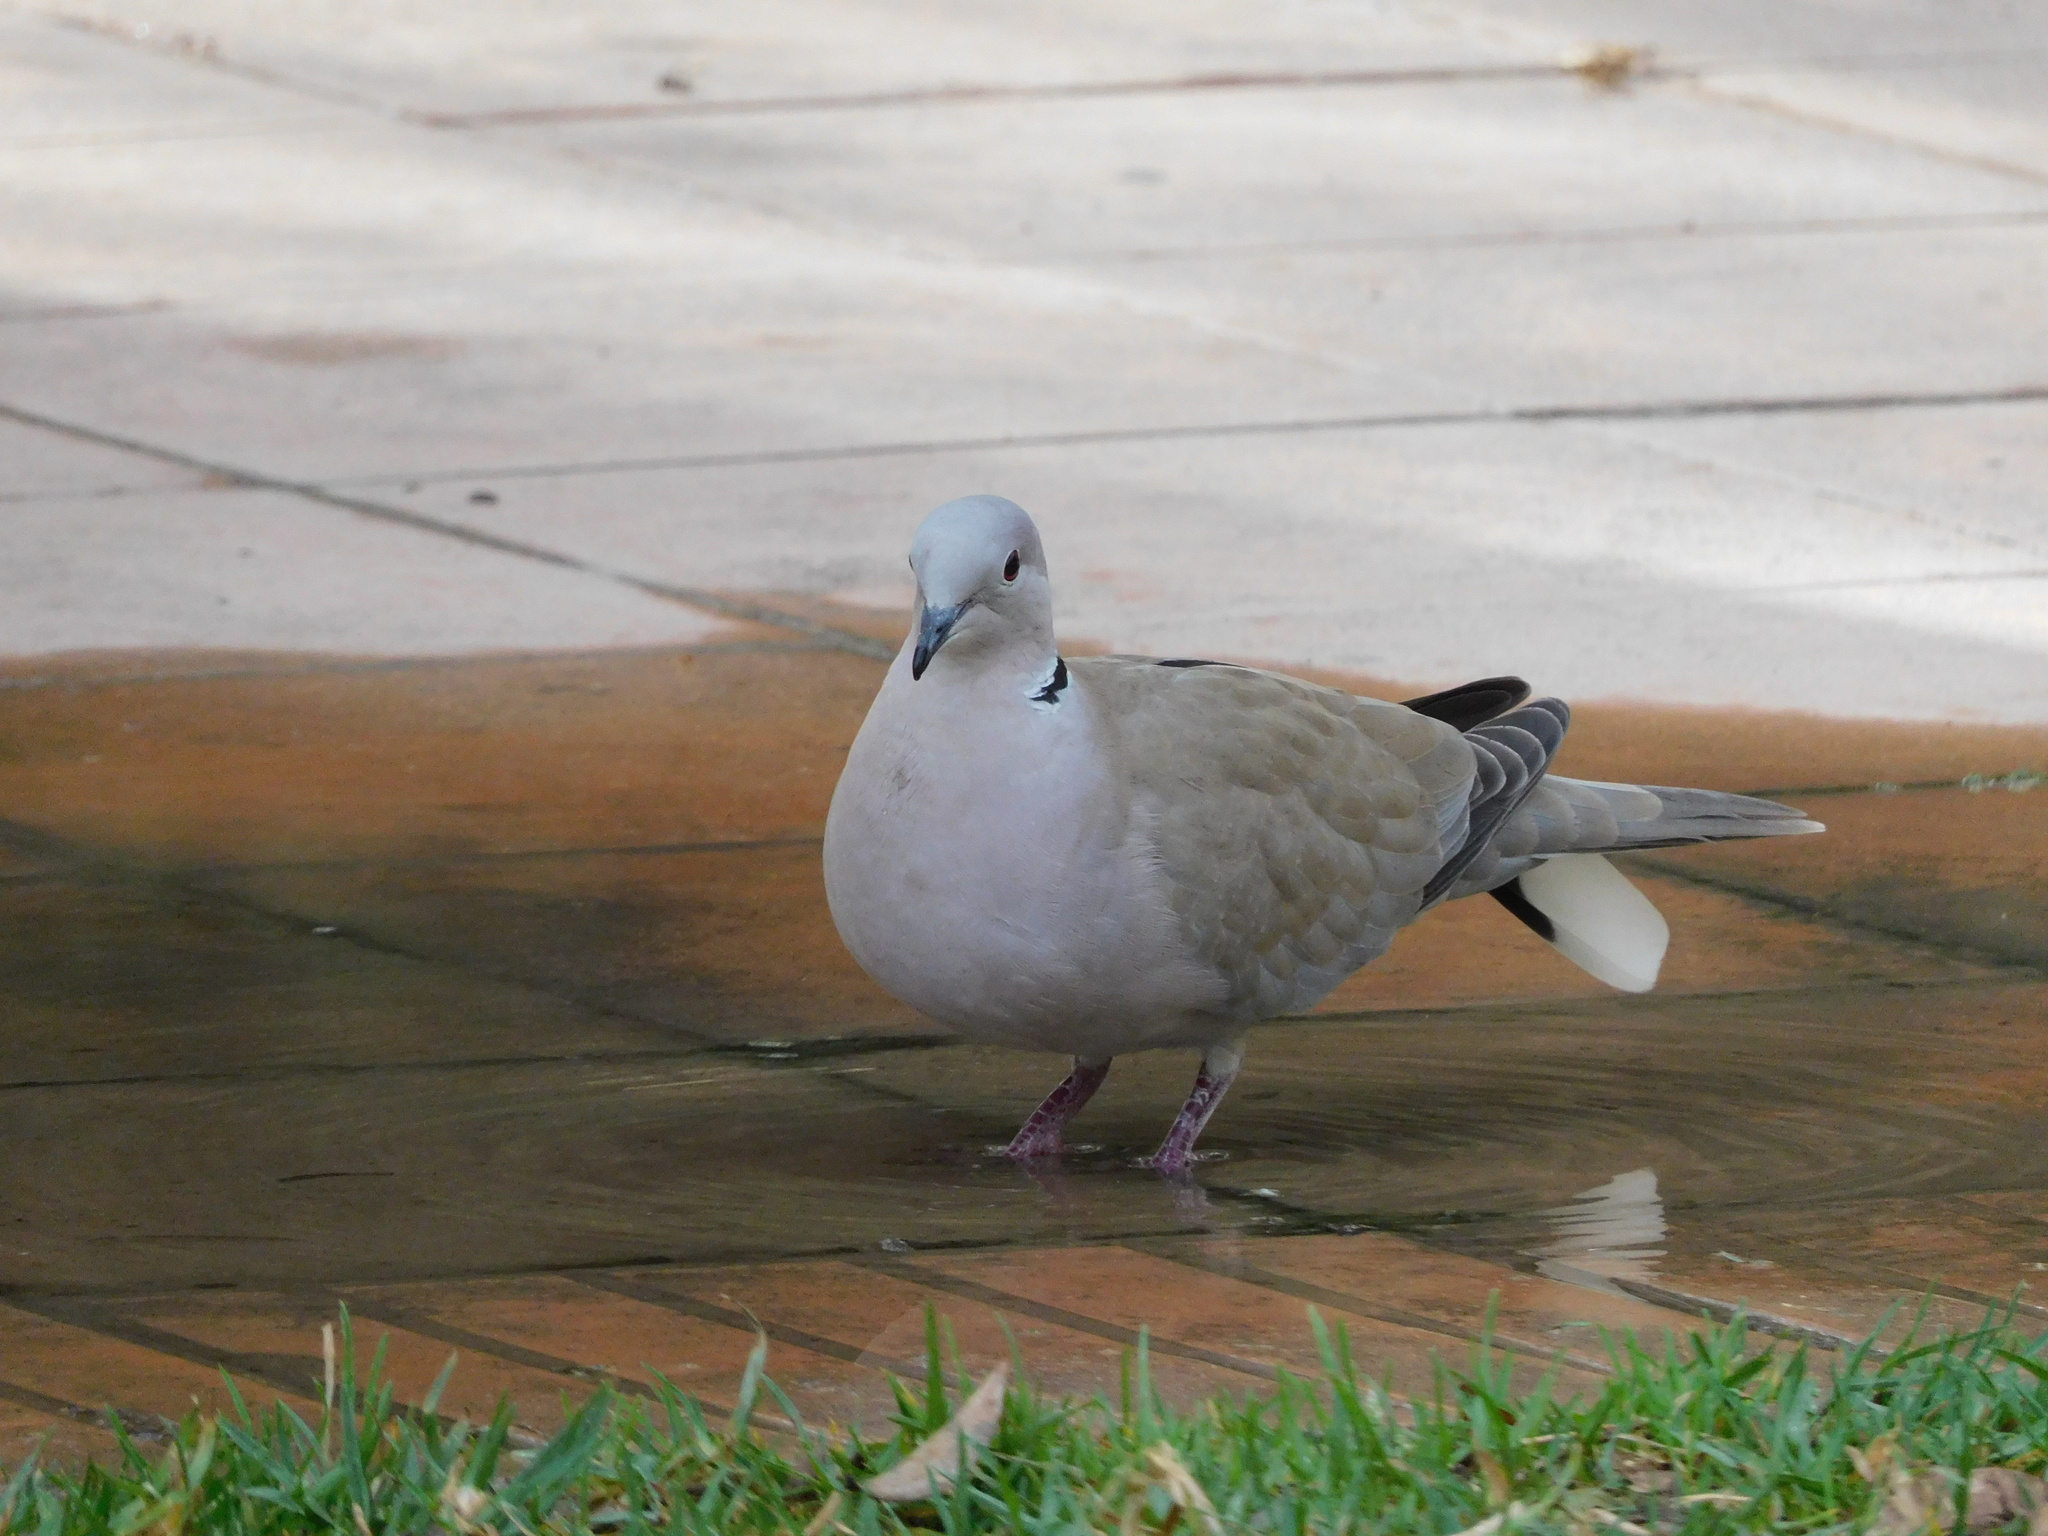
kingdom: Animalia
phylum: Chordata
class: Aves
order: Columbiformes
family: Columbidae
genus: Streptopelia
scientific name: Streptopelia decaocto
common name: Eurasian collared dove
